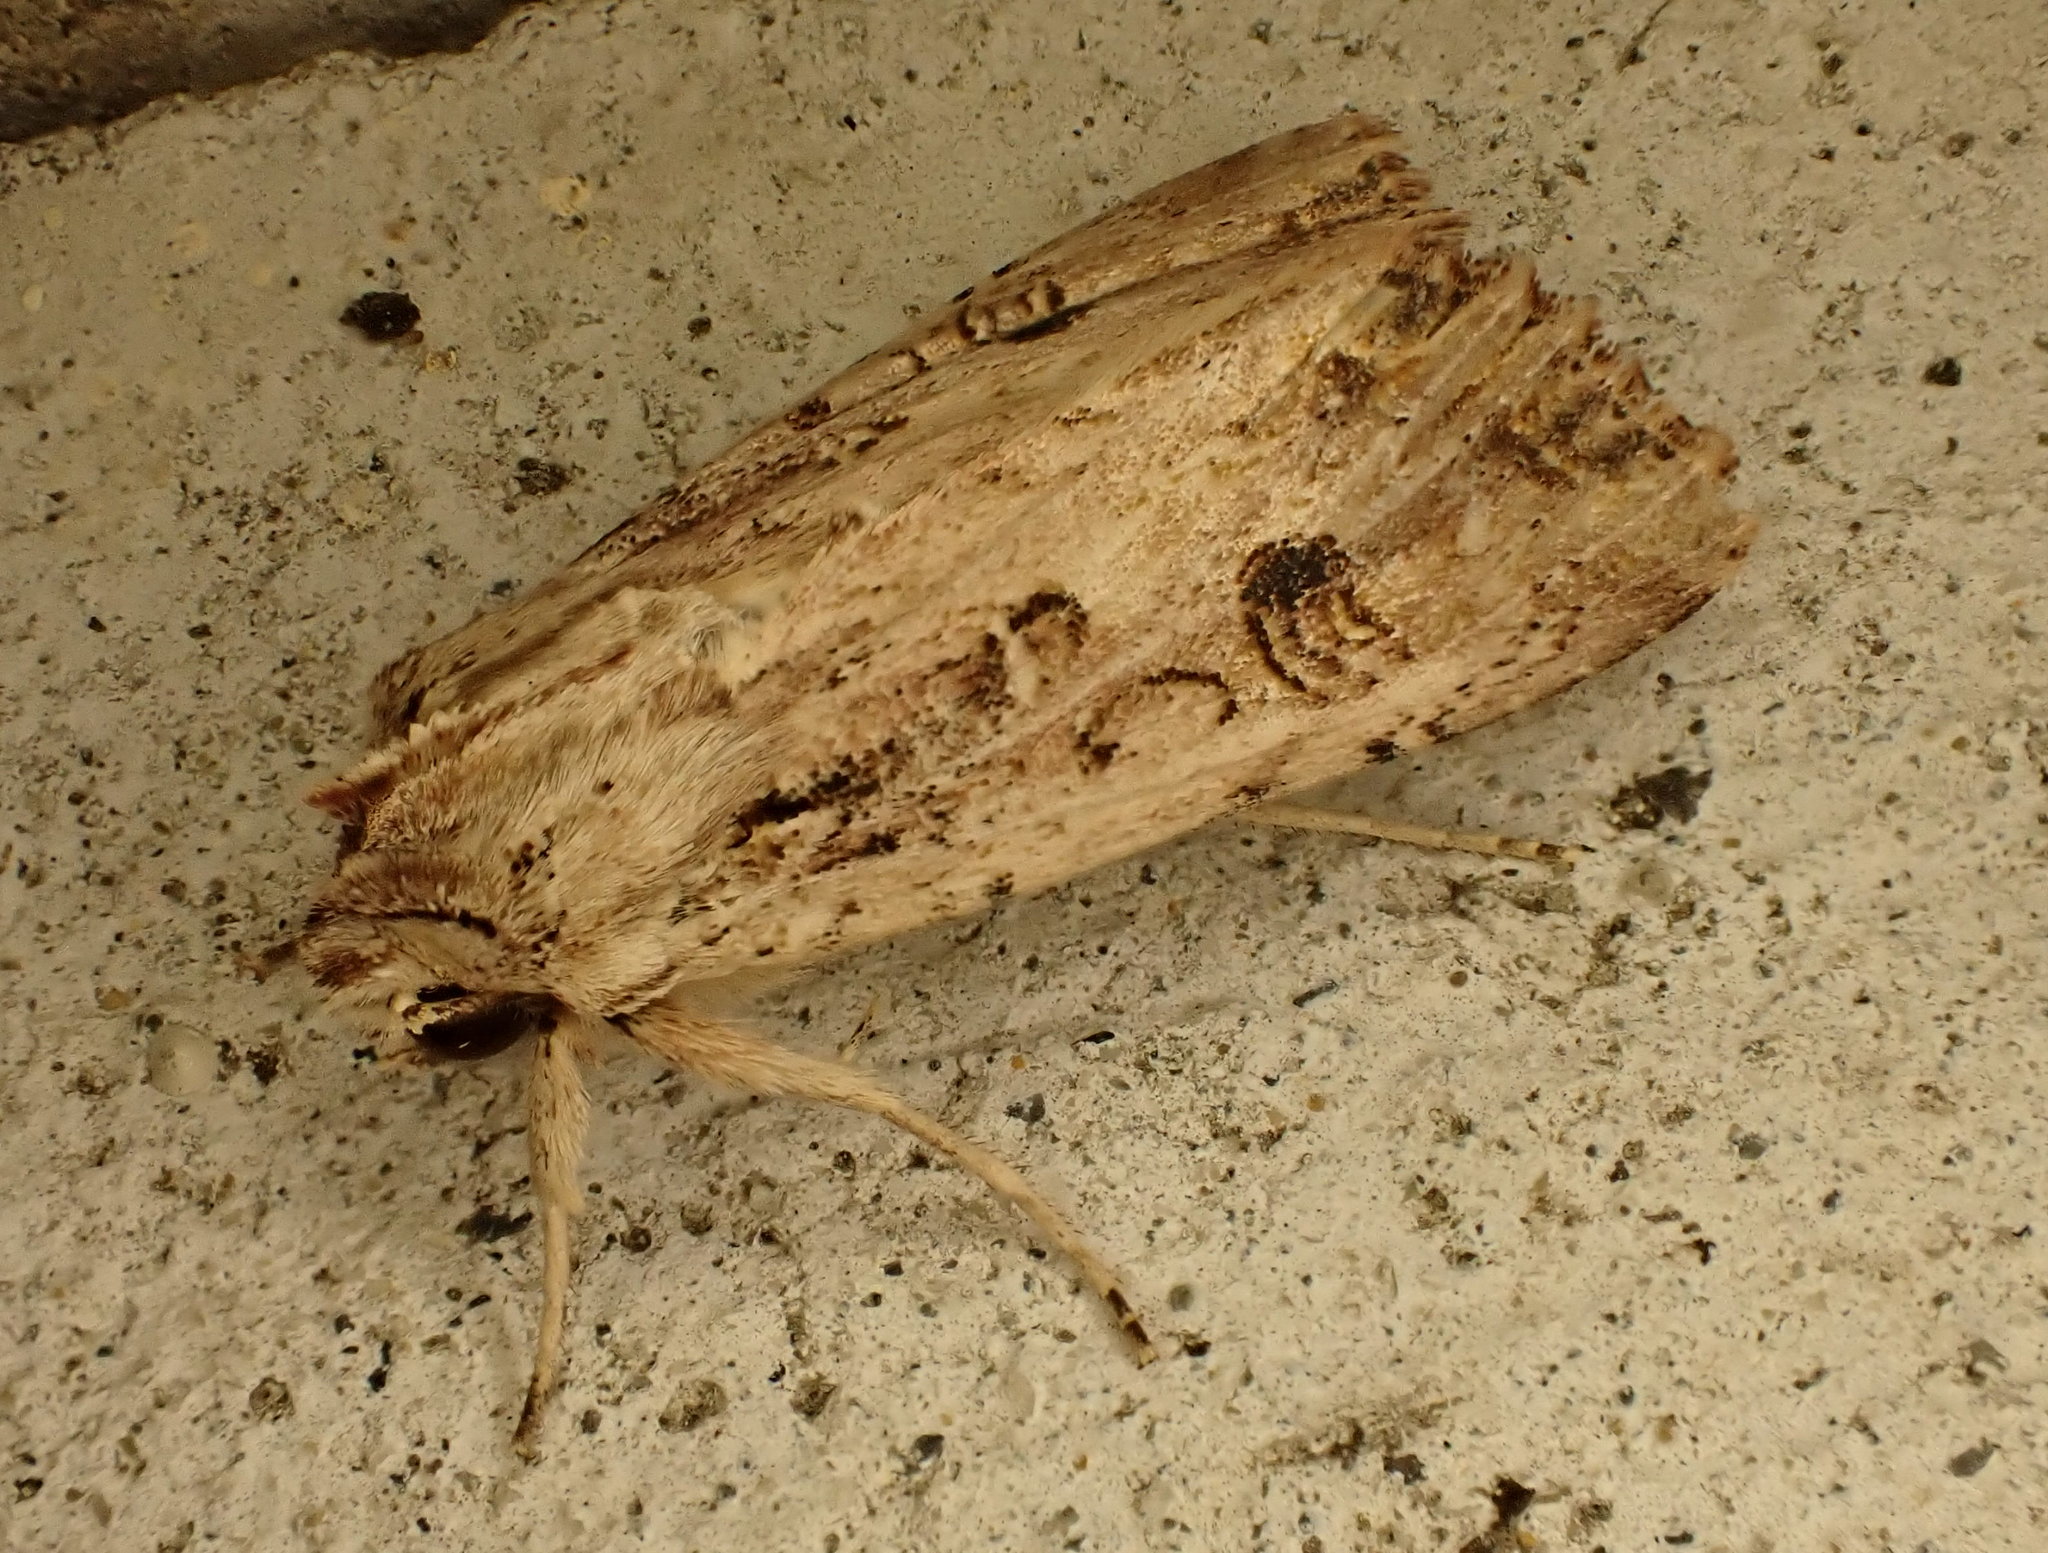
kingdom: Animalia
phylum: Arthropoda
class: Insecta
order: Lepidoptera
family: Noctuidae
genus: Ichneutica
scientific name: Ichneutica lignana
